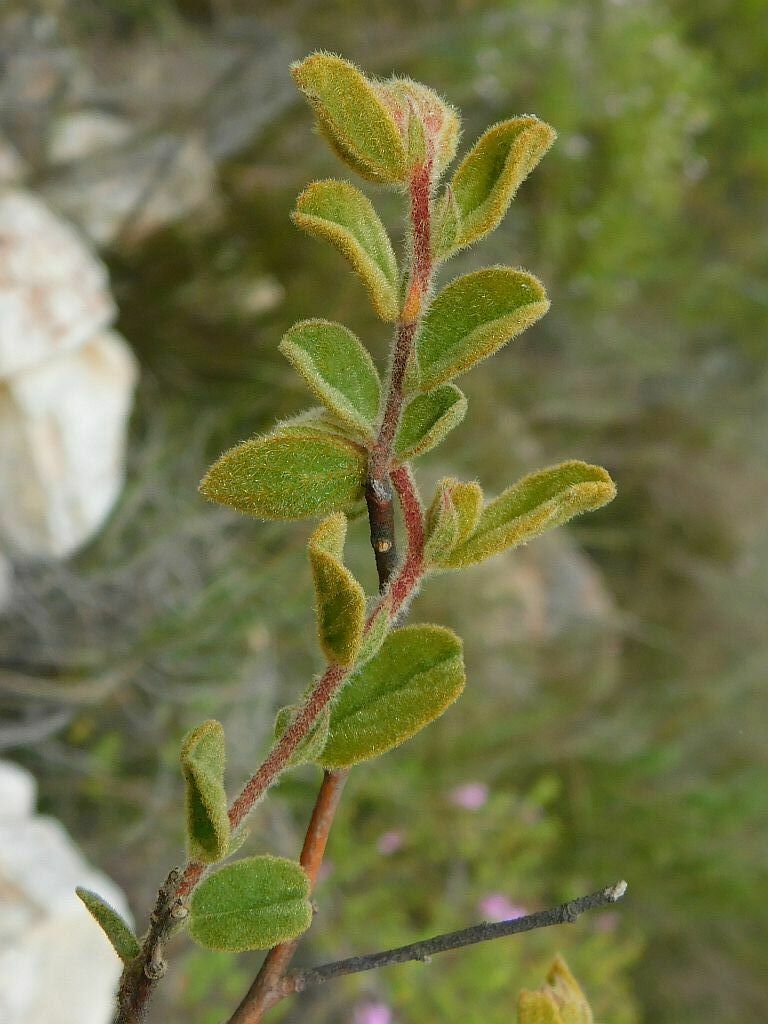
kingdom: Plantae
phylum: Tracheophyta
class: Magnoliopsida
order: Malvales
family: Malvaceae
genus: Hermannia
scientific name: Hermannia salviifolia
